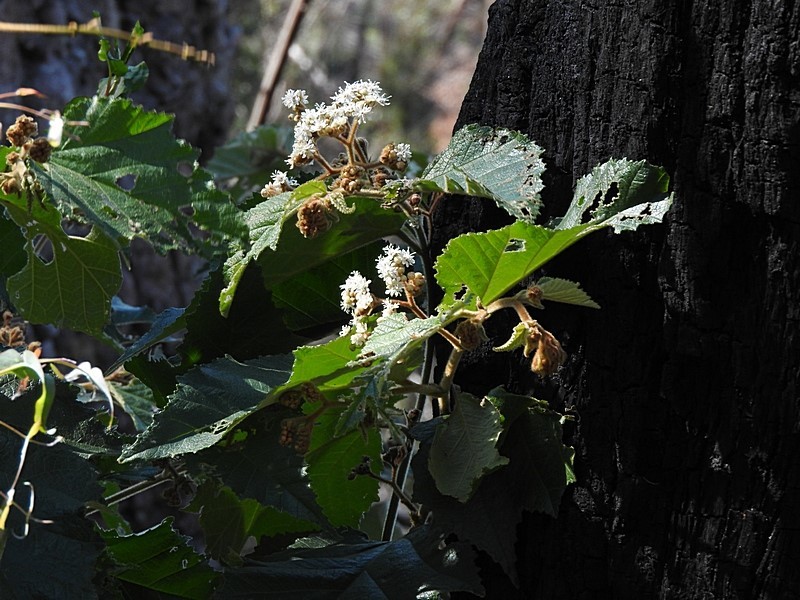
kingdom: Plantae
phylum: Tracheophyta
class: Magnoliopsida
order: Malvales
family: Malvaceae
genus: Androcalva
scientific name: Androcalva rossii
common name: Native hemp
